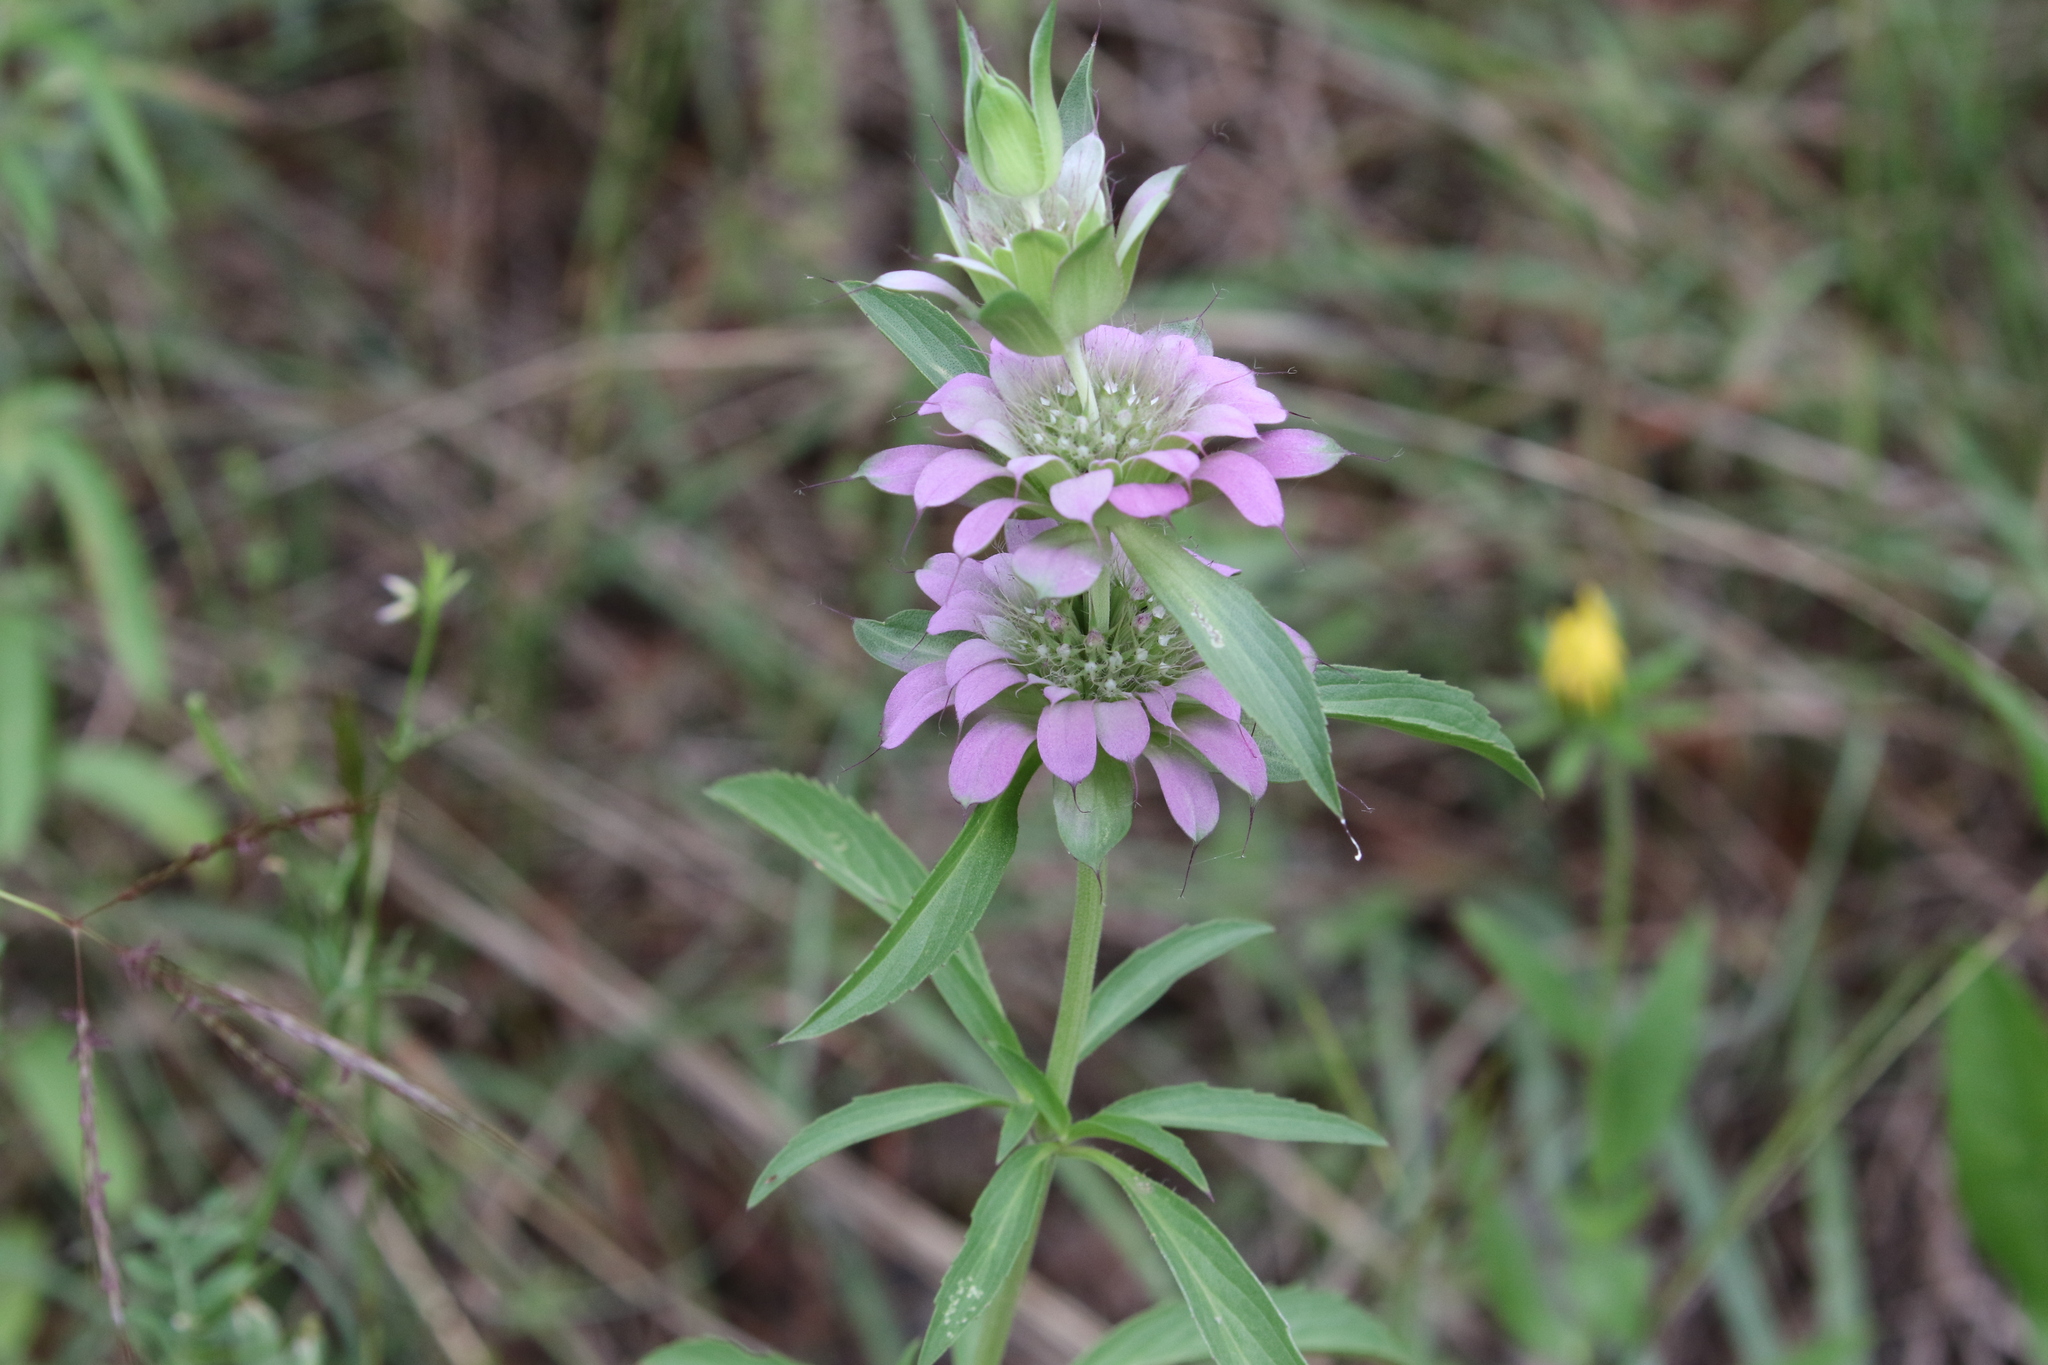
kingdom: Plantae
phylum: Tracheophyta
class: Magnoliopsida
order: Lamiales
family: Lamiaceae
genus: Monarda
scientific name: Monarda citriodora
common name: Lemon beebalm
